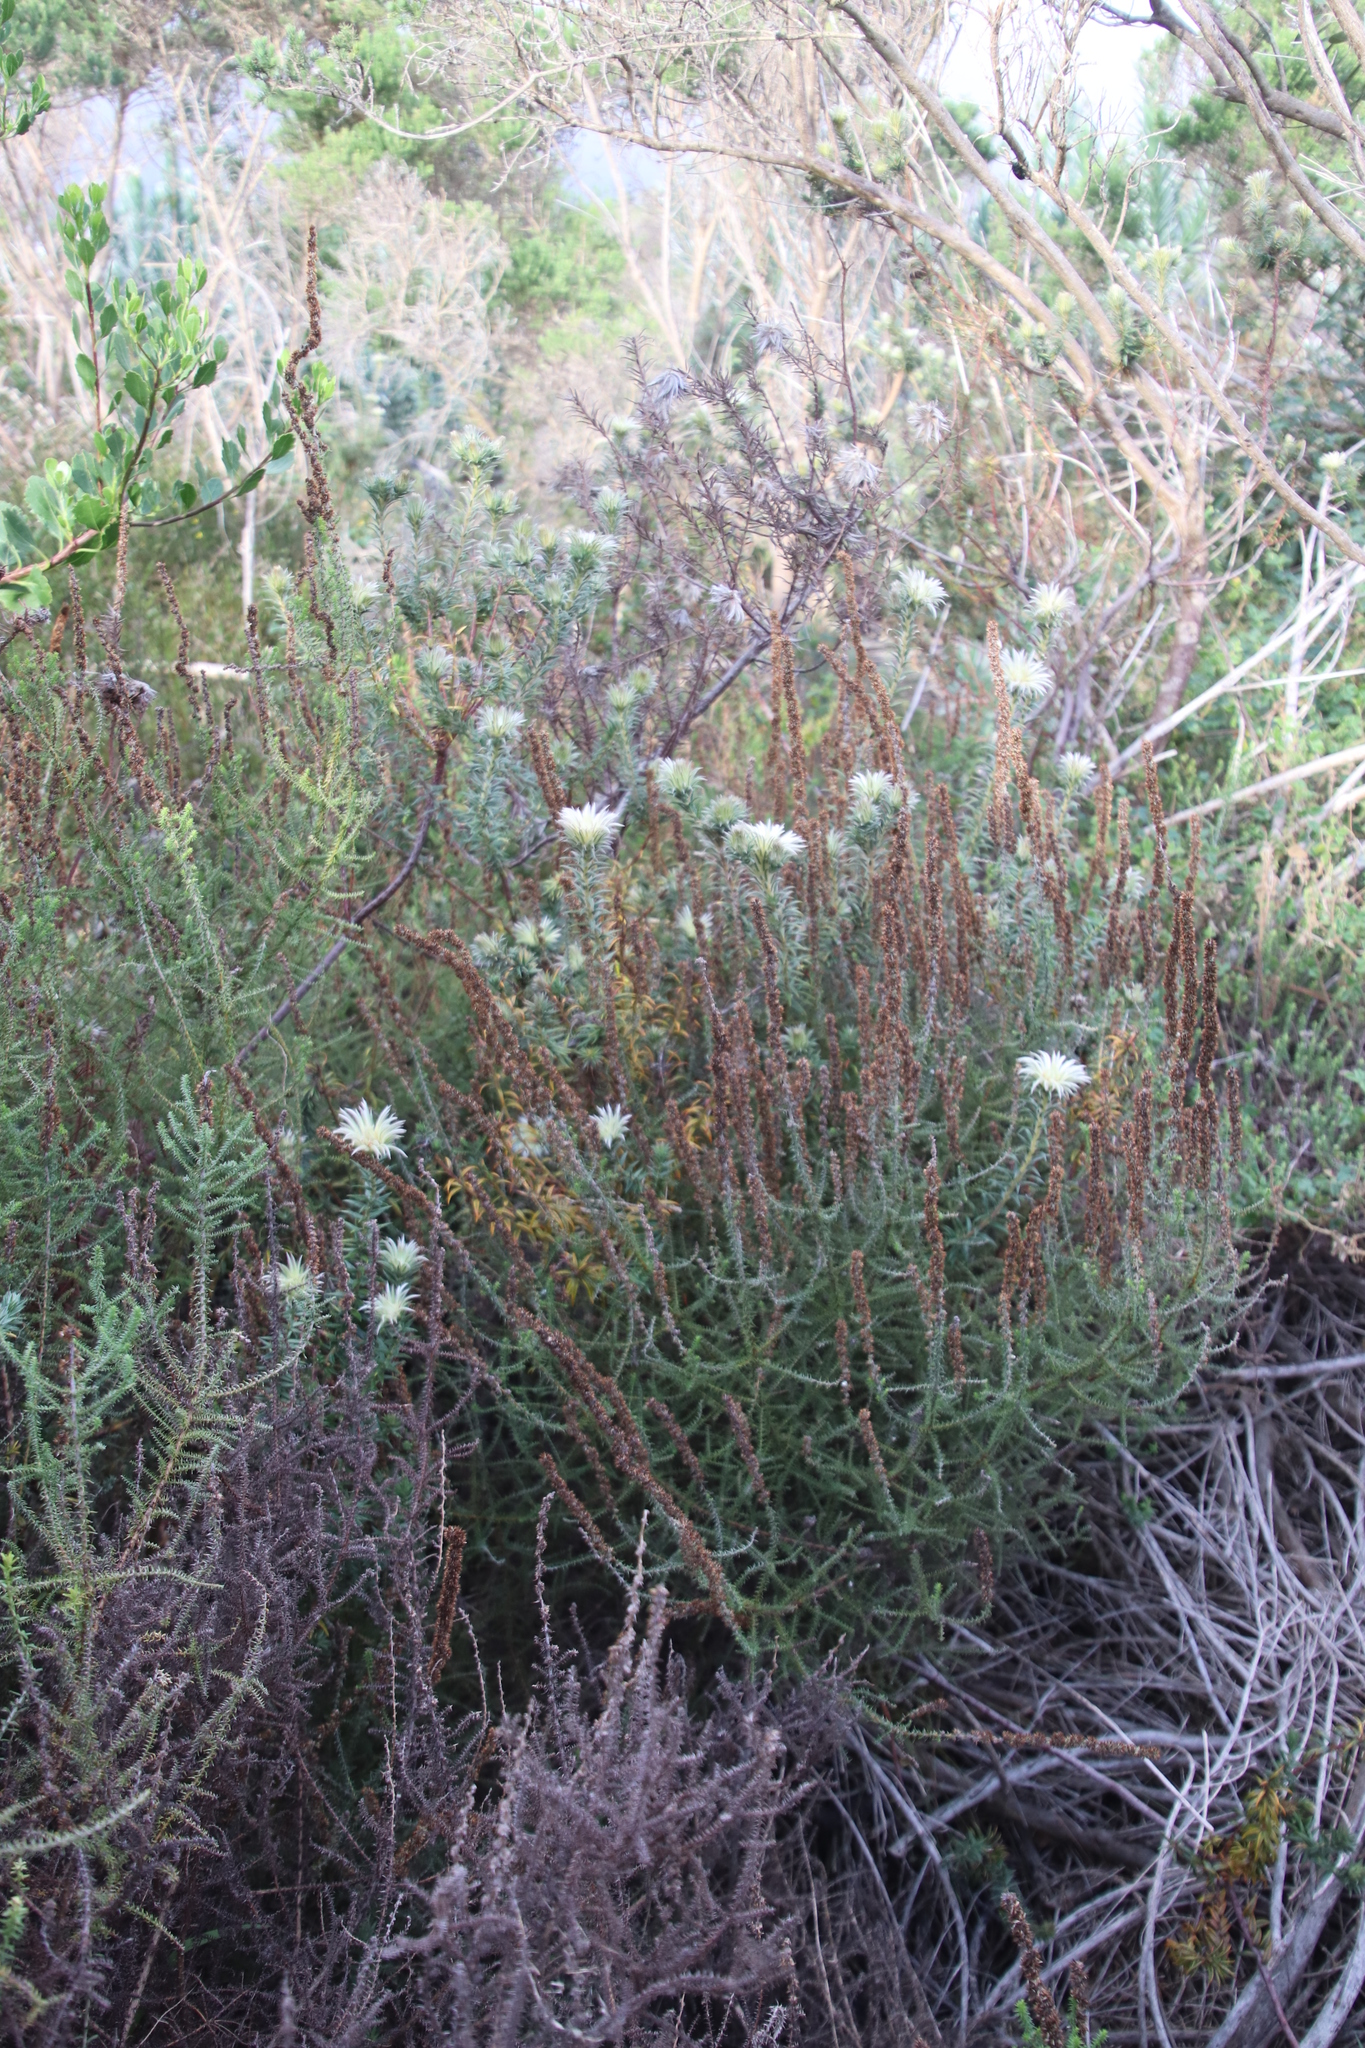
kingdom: Plantae
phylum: Tracheophyta
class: Magnoliopsida
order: Asterales
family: Asteraceae
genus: Seriphium
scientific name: Seriphium cinereum
